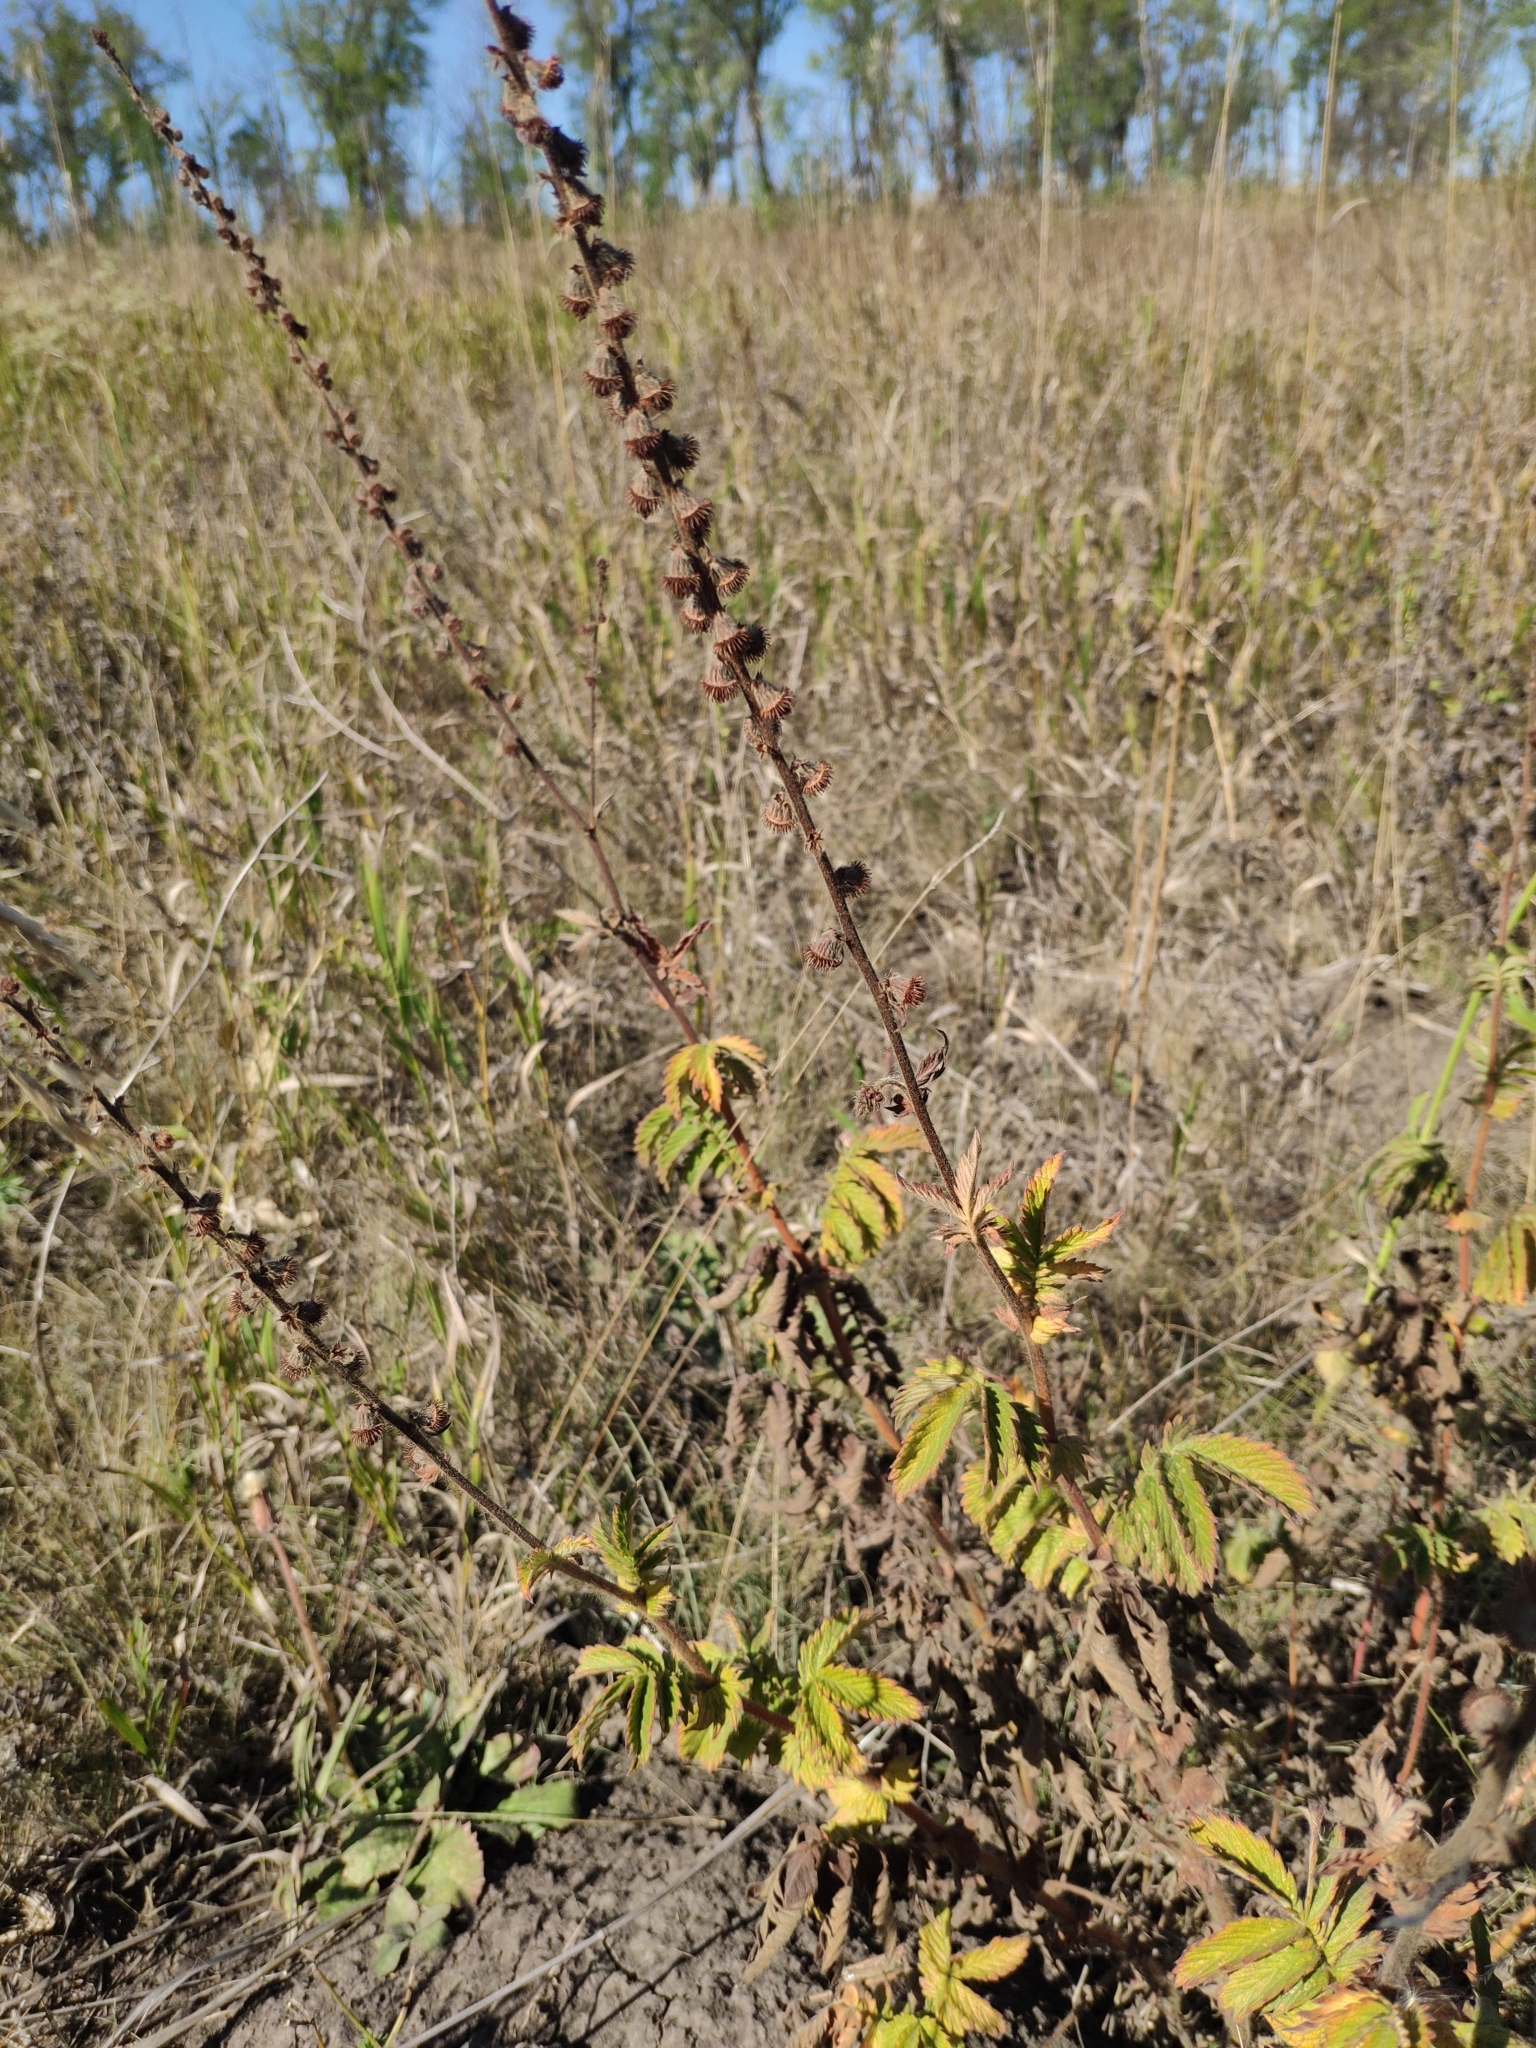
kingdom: Plantae
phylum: Tracheophyta
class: Magnoliopsida
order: Rosales
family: Rosaceae
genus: Agrimonia
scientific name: Agrimonia eupatoria
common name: Agrimony
